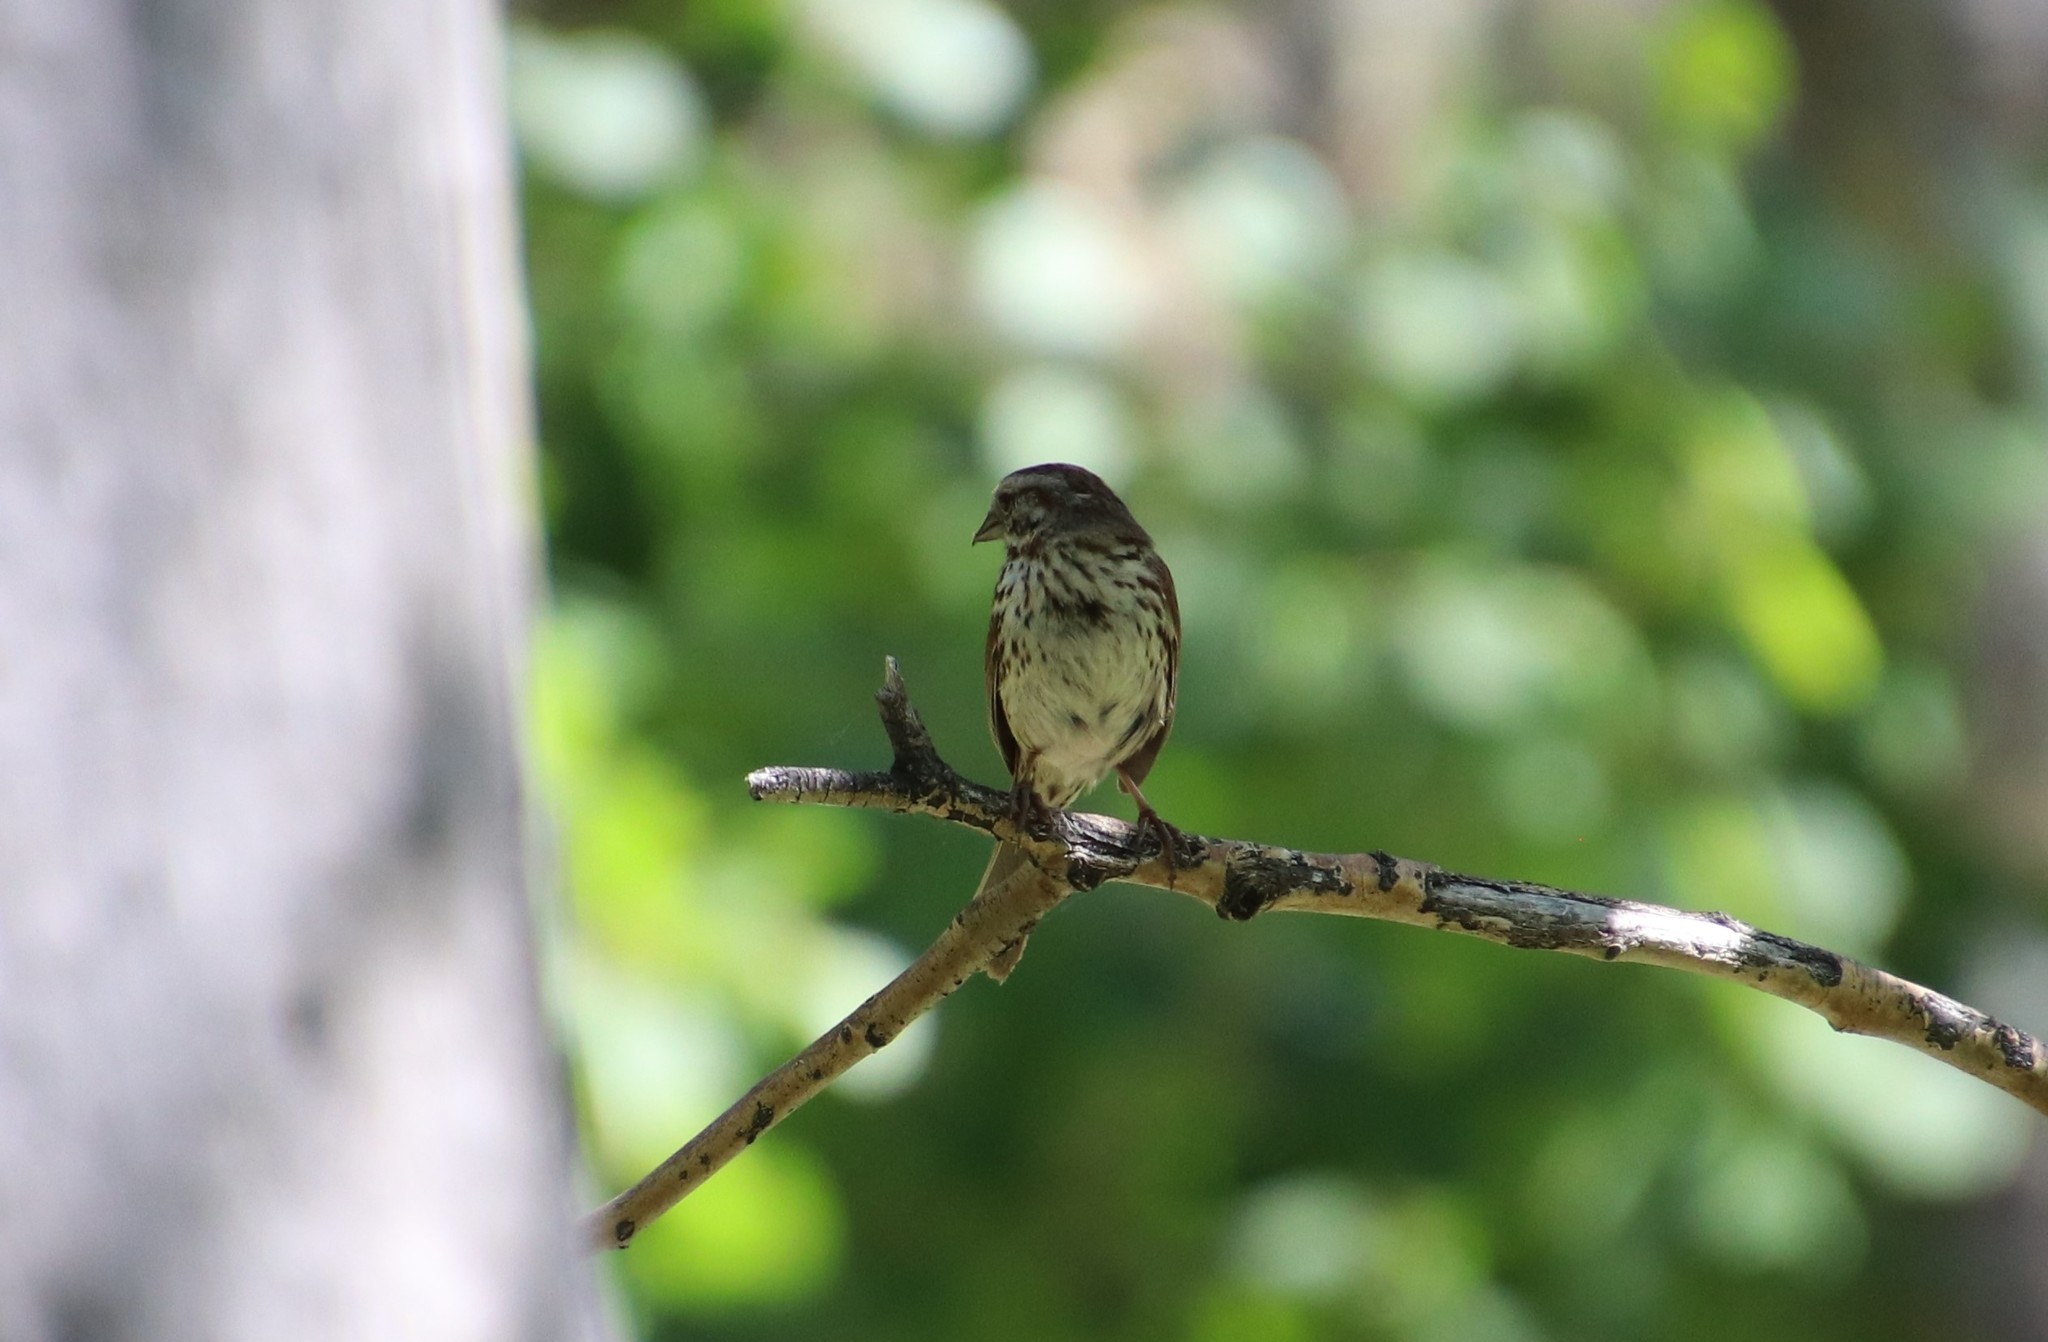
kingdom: Animalia
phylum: Chordata
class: Aves
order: Passeriformes
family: Passerellidae
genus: Melospiza
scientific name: Melospiza melodia
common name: Song sparrow
